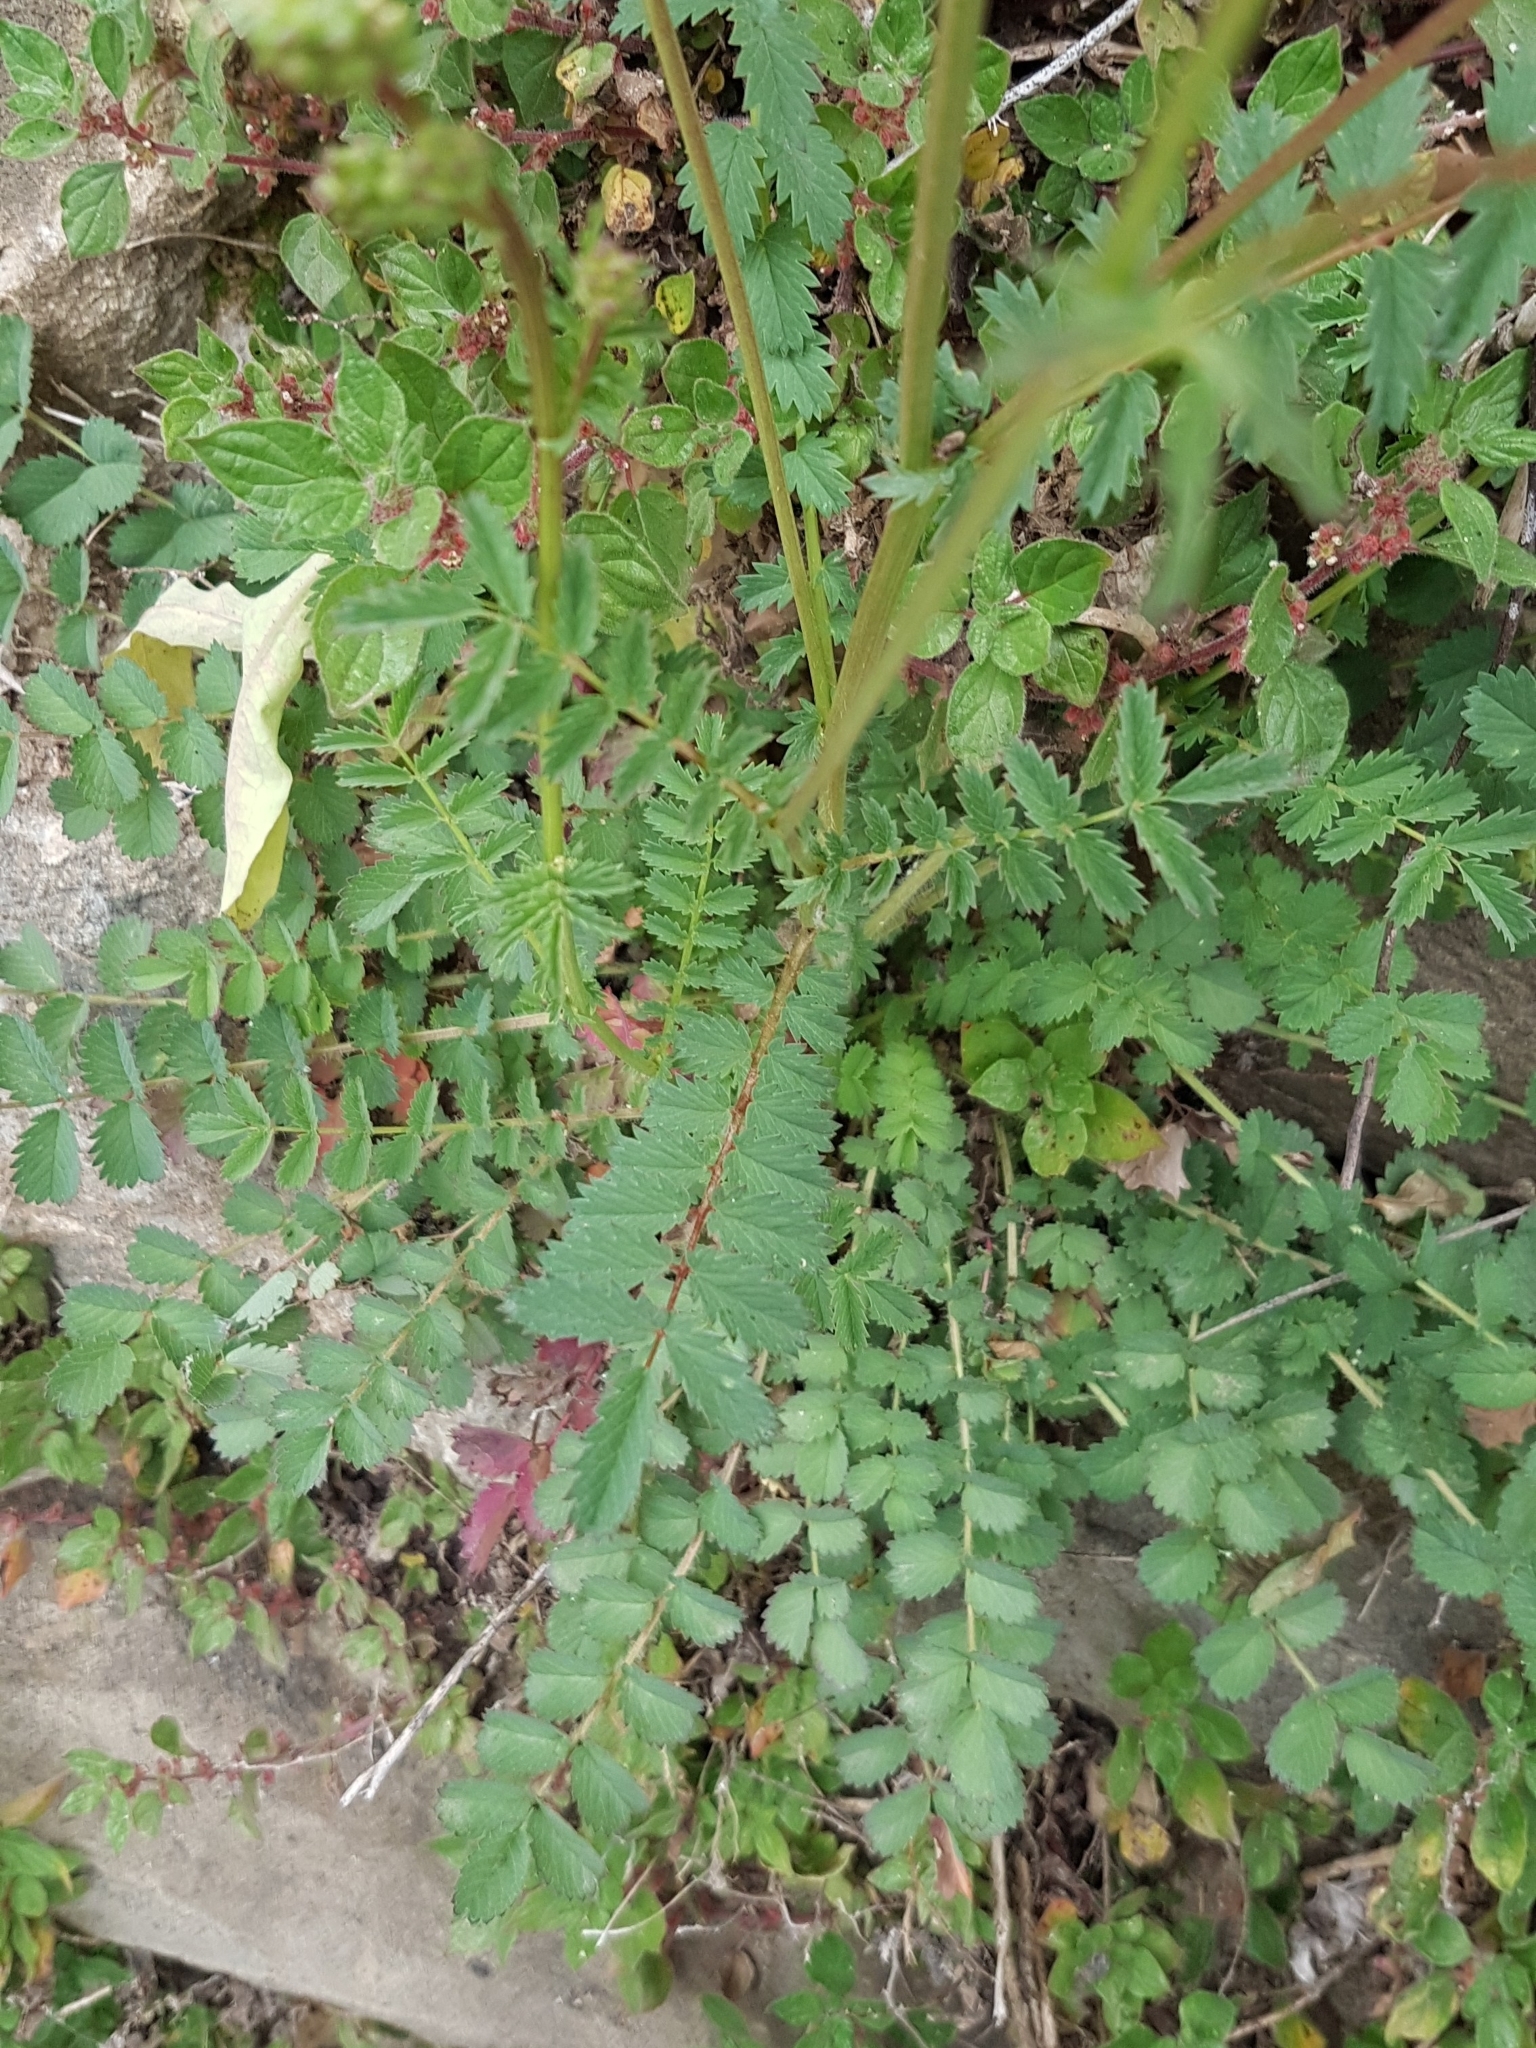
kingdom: Plantae
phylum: Tracheophyta
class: Magnoliopsida
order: Rosales
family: Rosaceae
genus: Poterium
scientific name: Poterium sanguisorba
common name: Salad burnet
